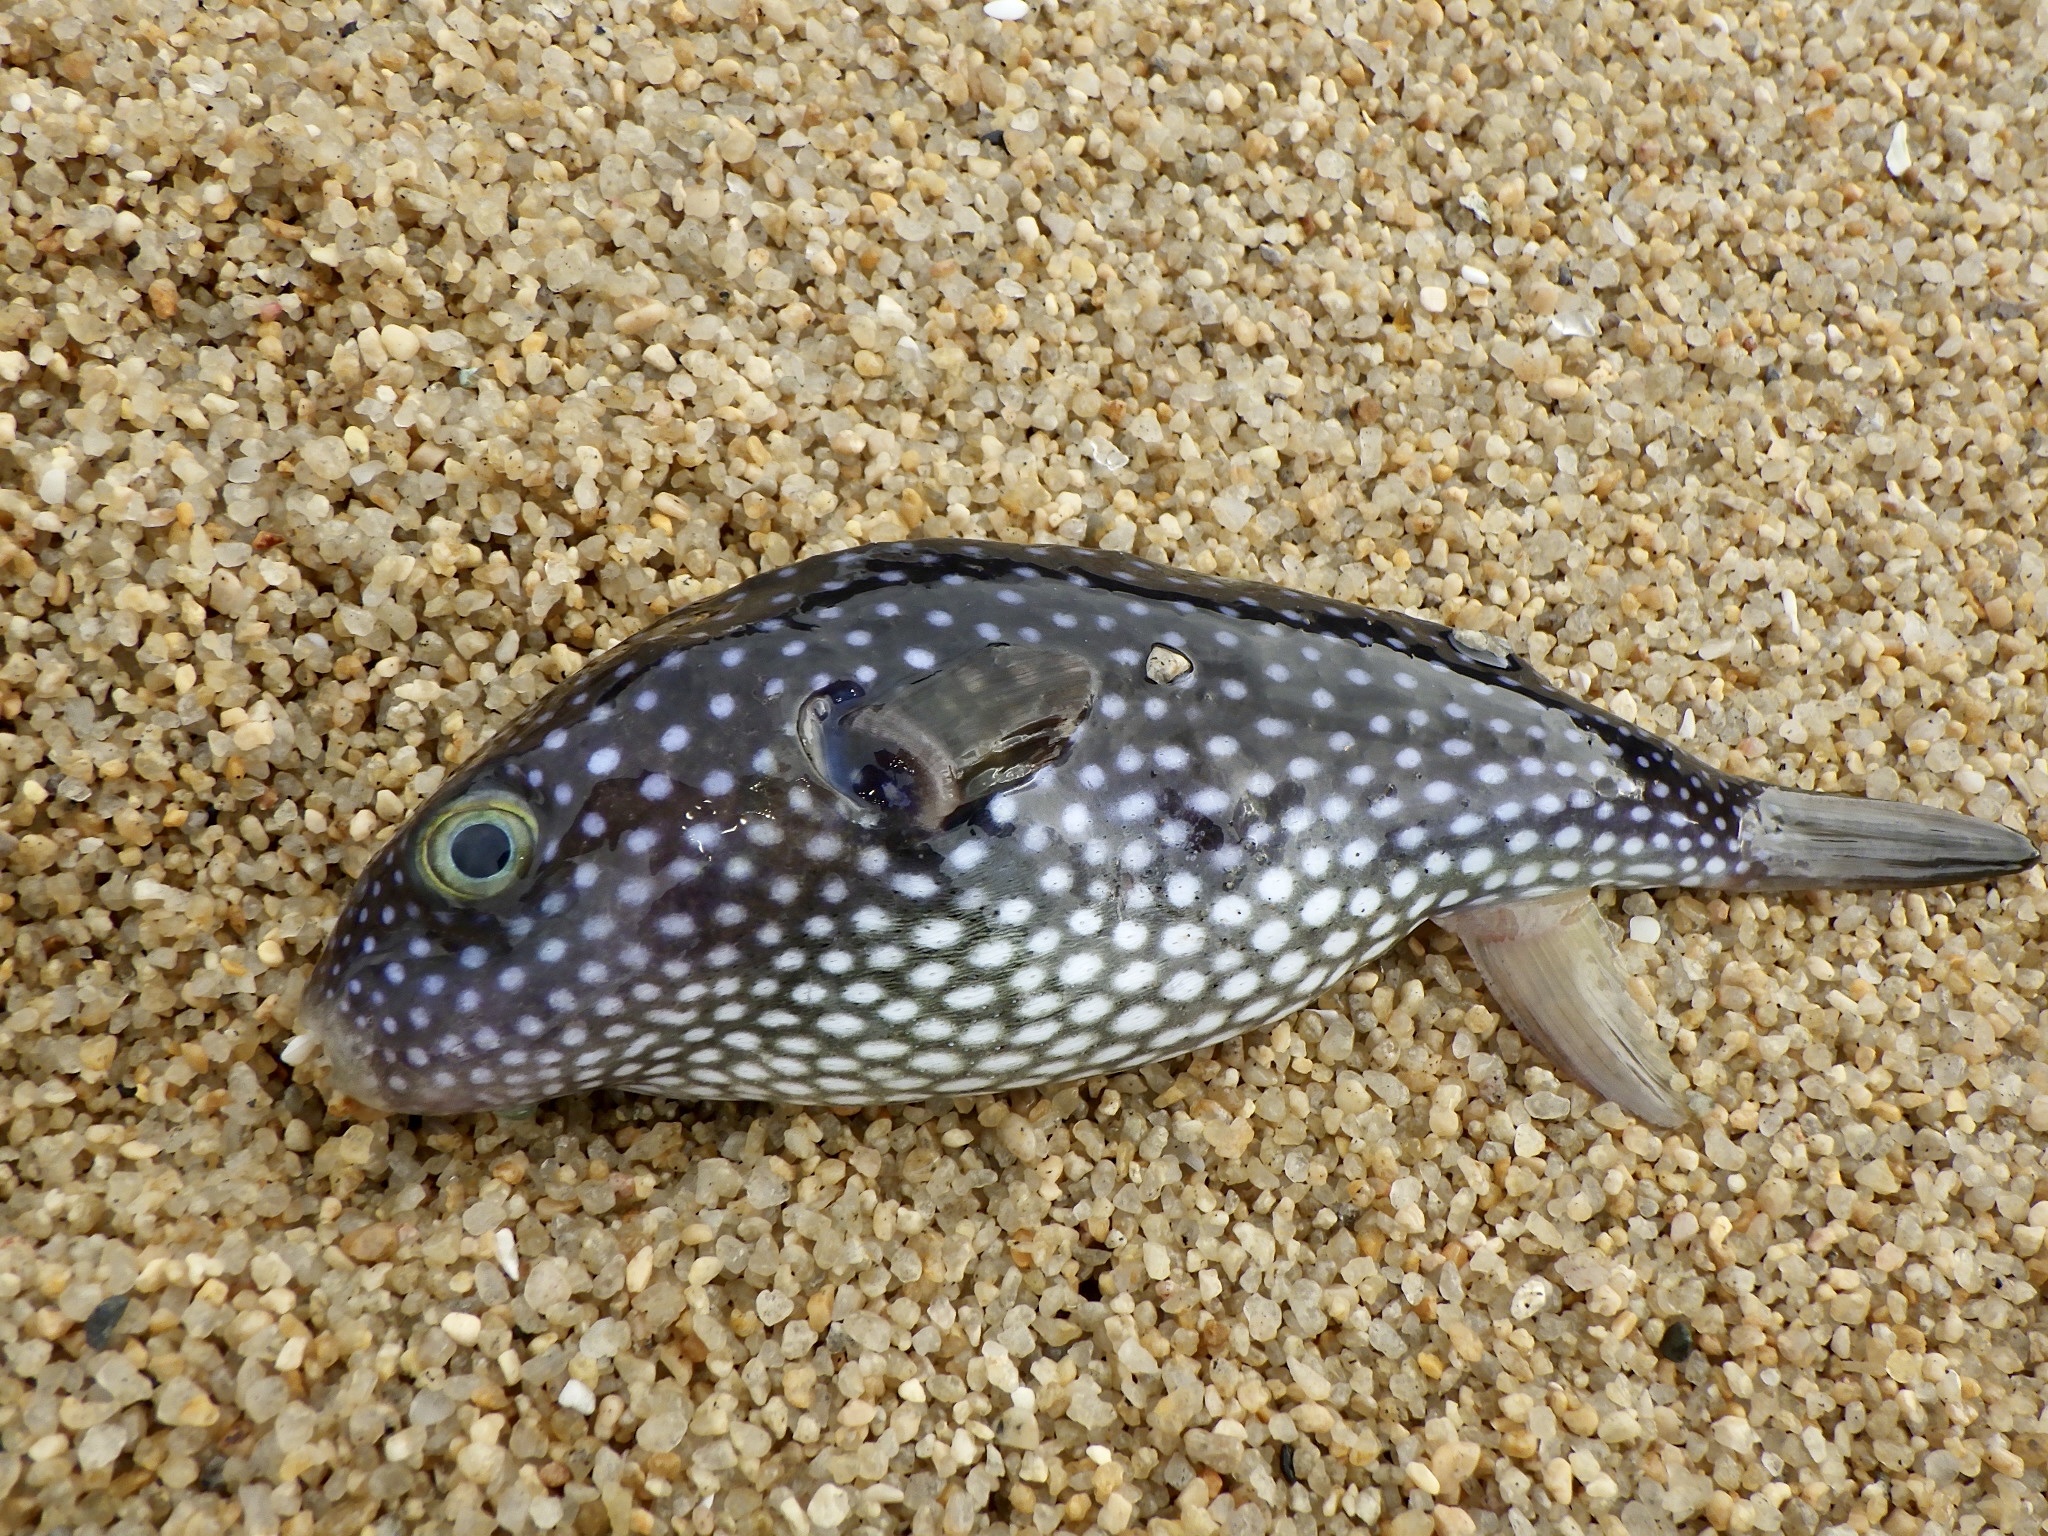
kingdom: Animalia
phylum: Chordata
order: Tetraodontiformes
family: Tetraodontidae
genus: Arothron
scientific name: Arothron firmamentum
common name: Starry toado
